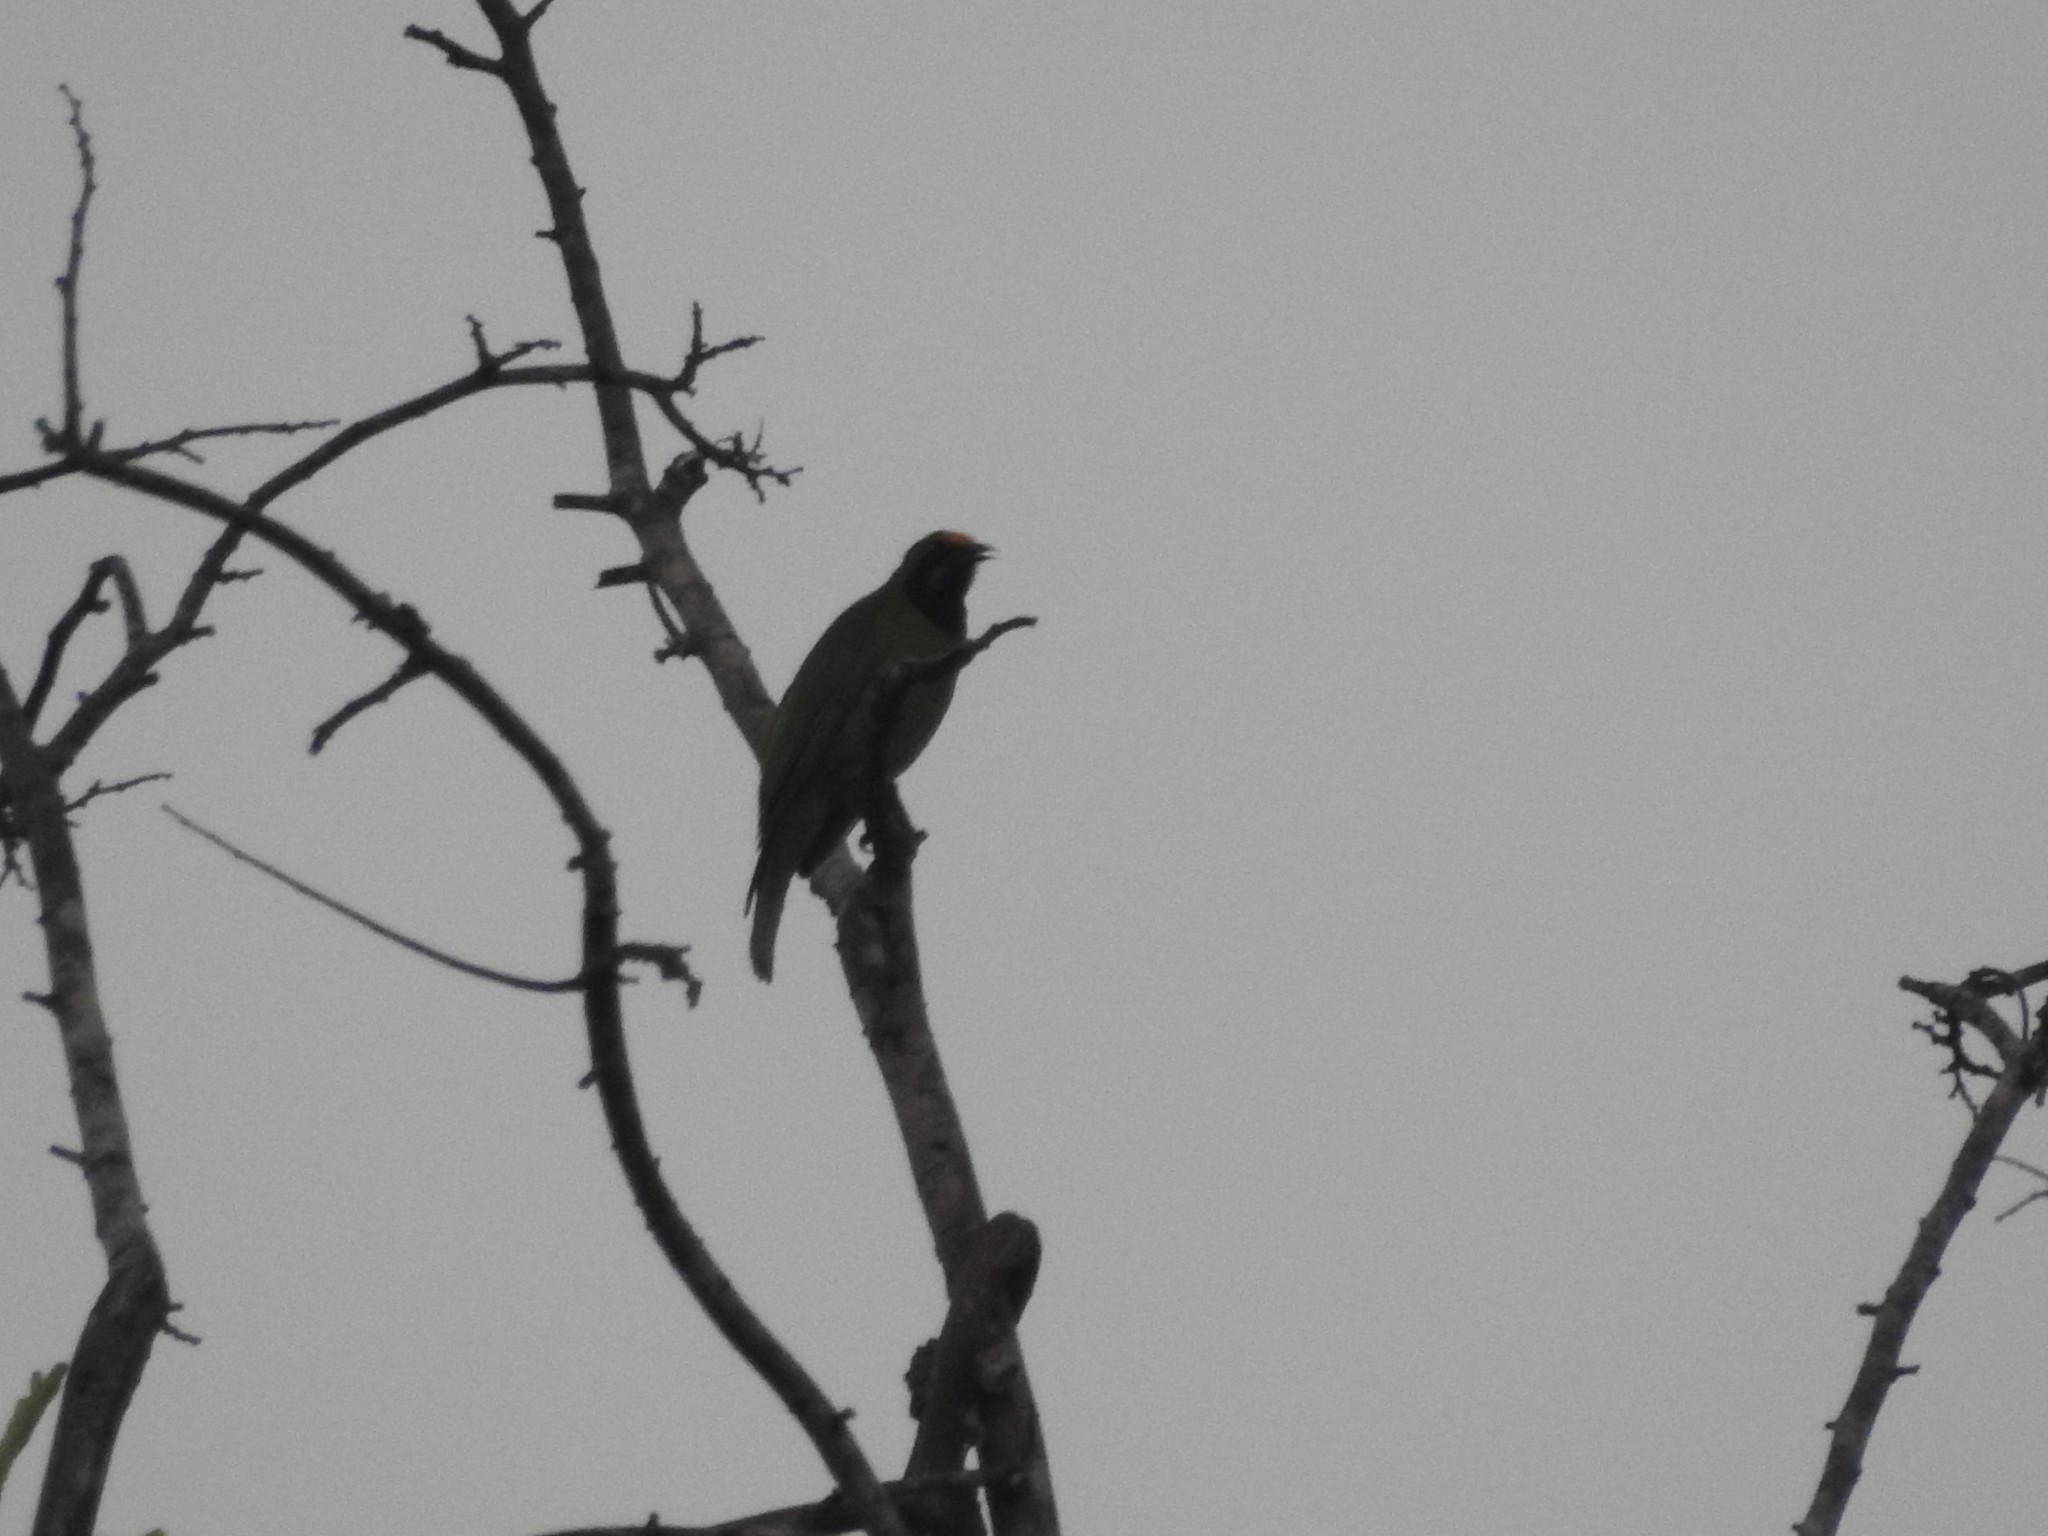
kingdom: Animalia
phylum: Chordata
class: Aves
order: Passeriformes
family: Chloropseidae
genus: Chloropsis
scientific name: Chloropsis aurifrons
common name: Golden-fronted leafbird
